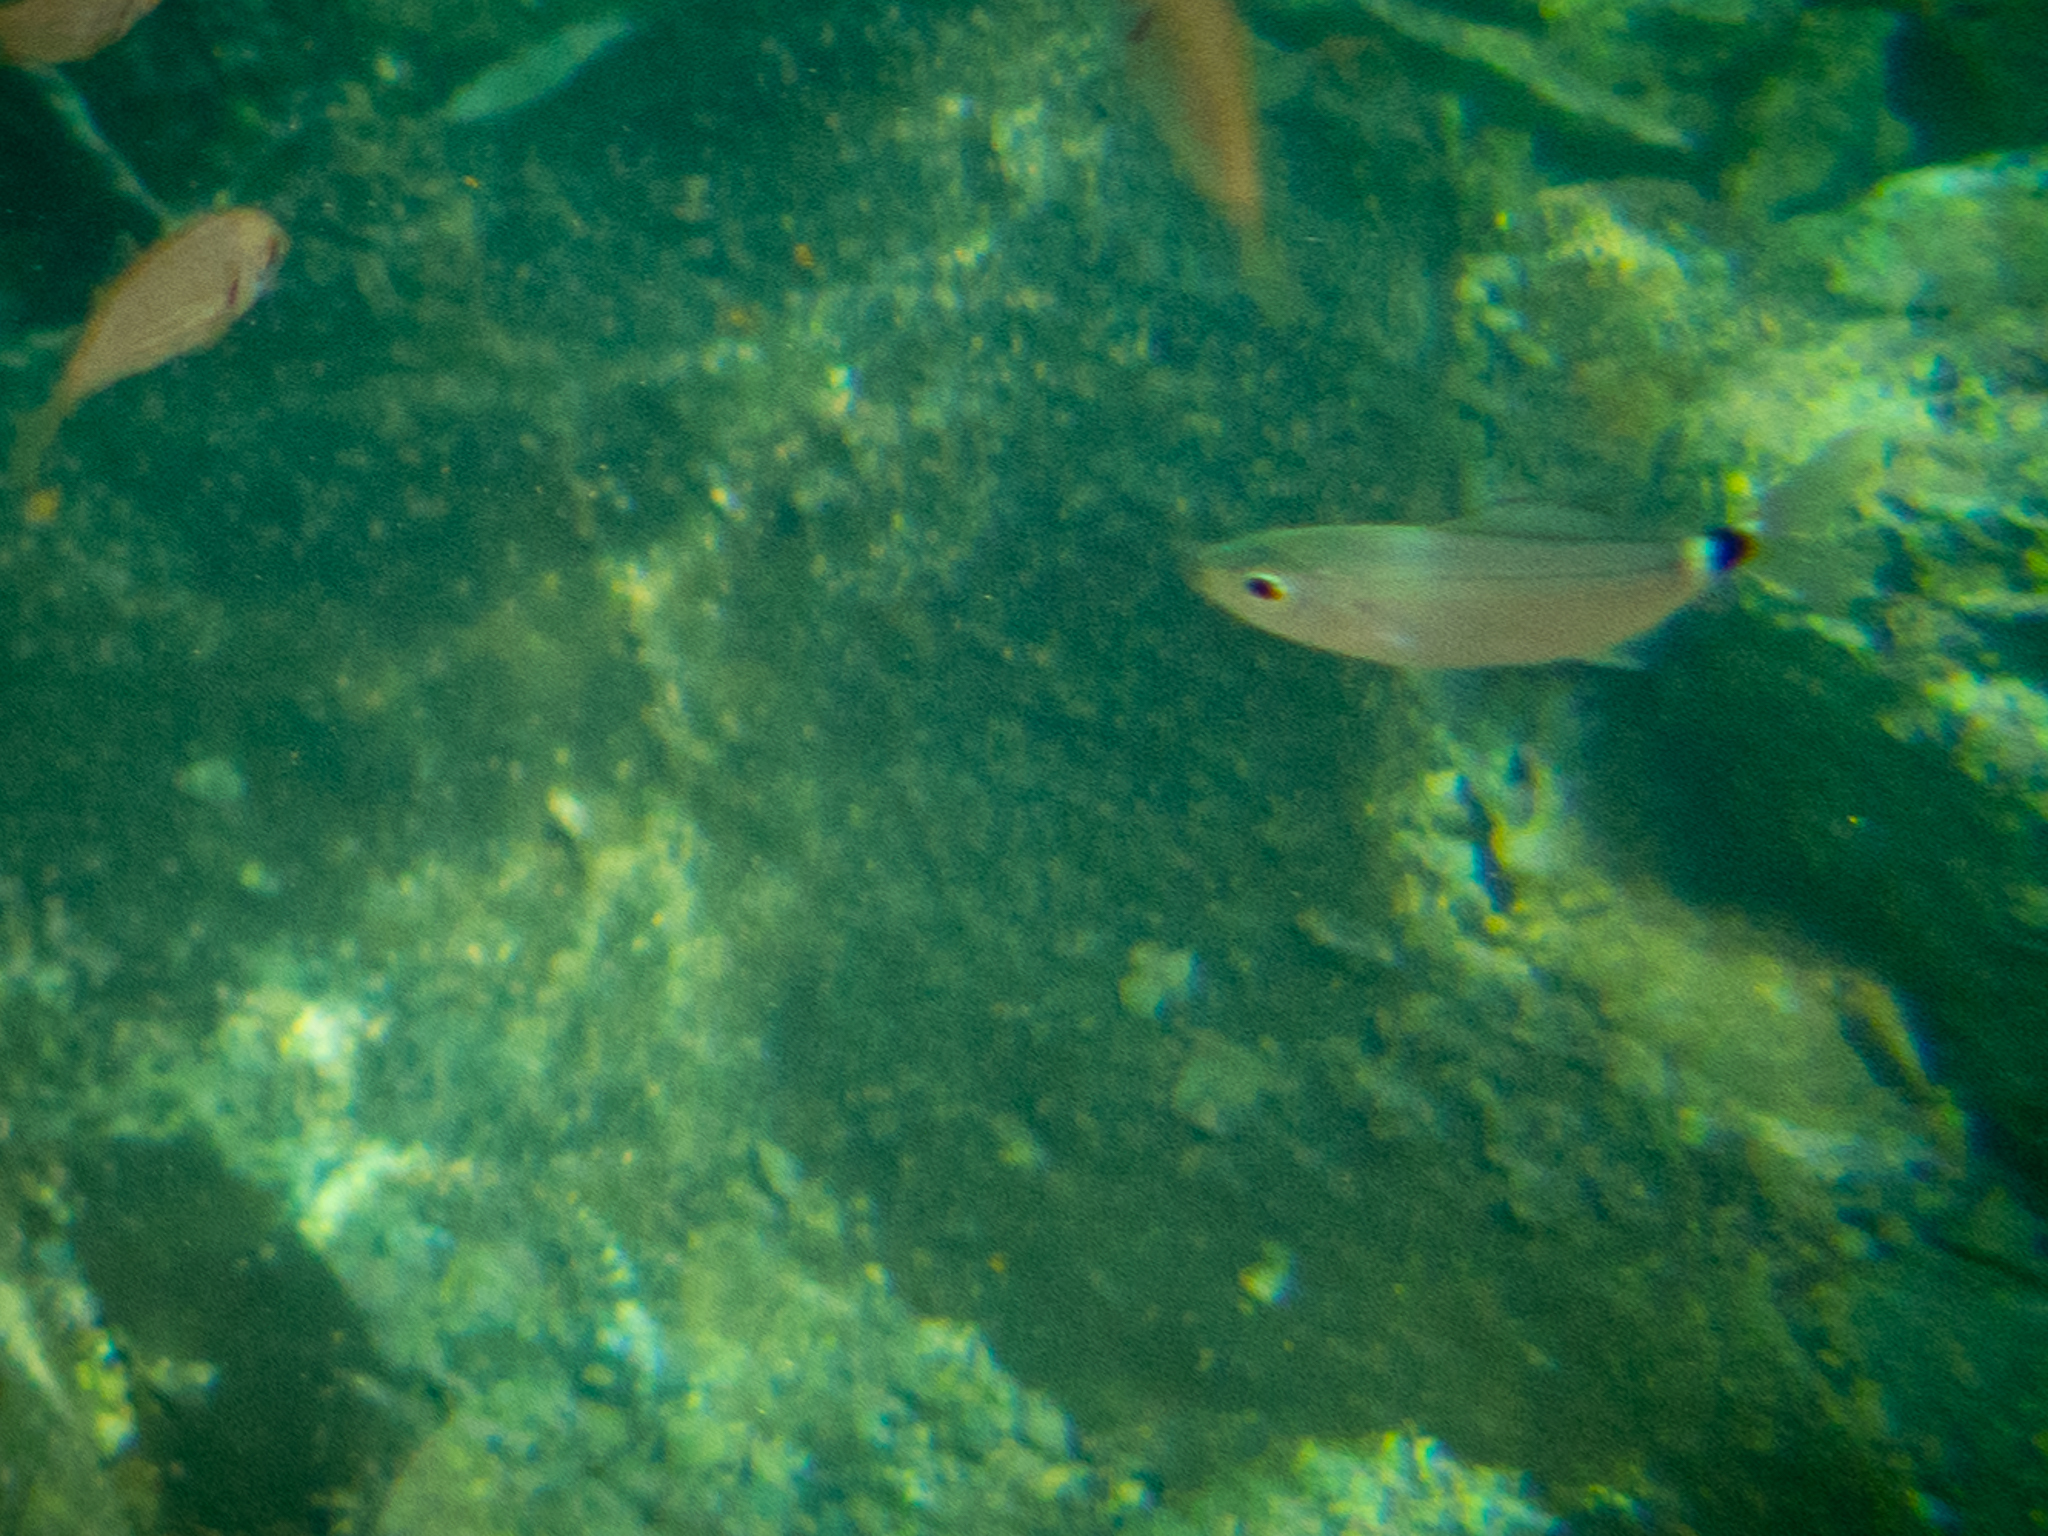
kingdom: Animalia
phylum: Chordata
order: Perciformes
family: Sparidae
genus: Oblada
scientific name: Oblada melanura
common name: Saddled seabream
